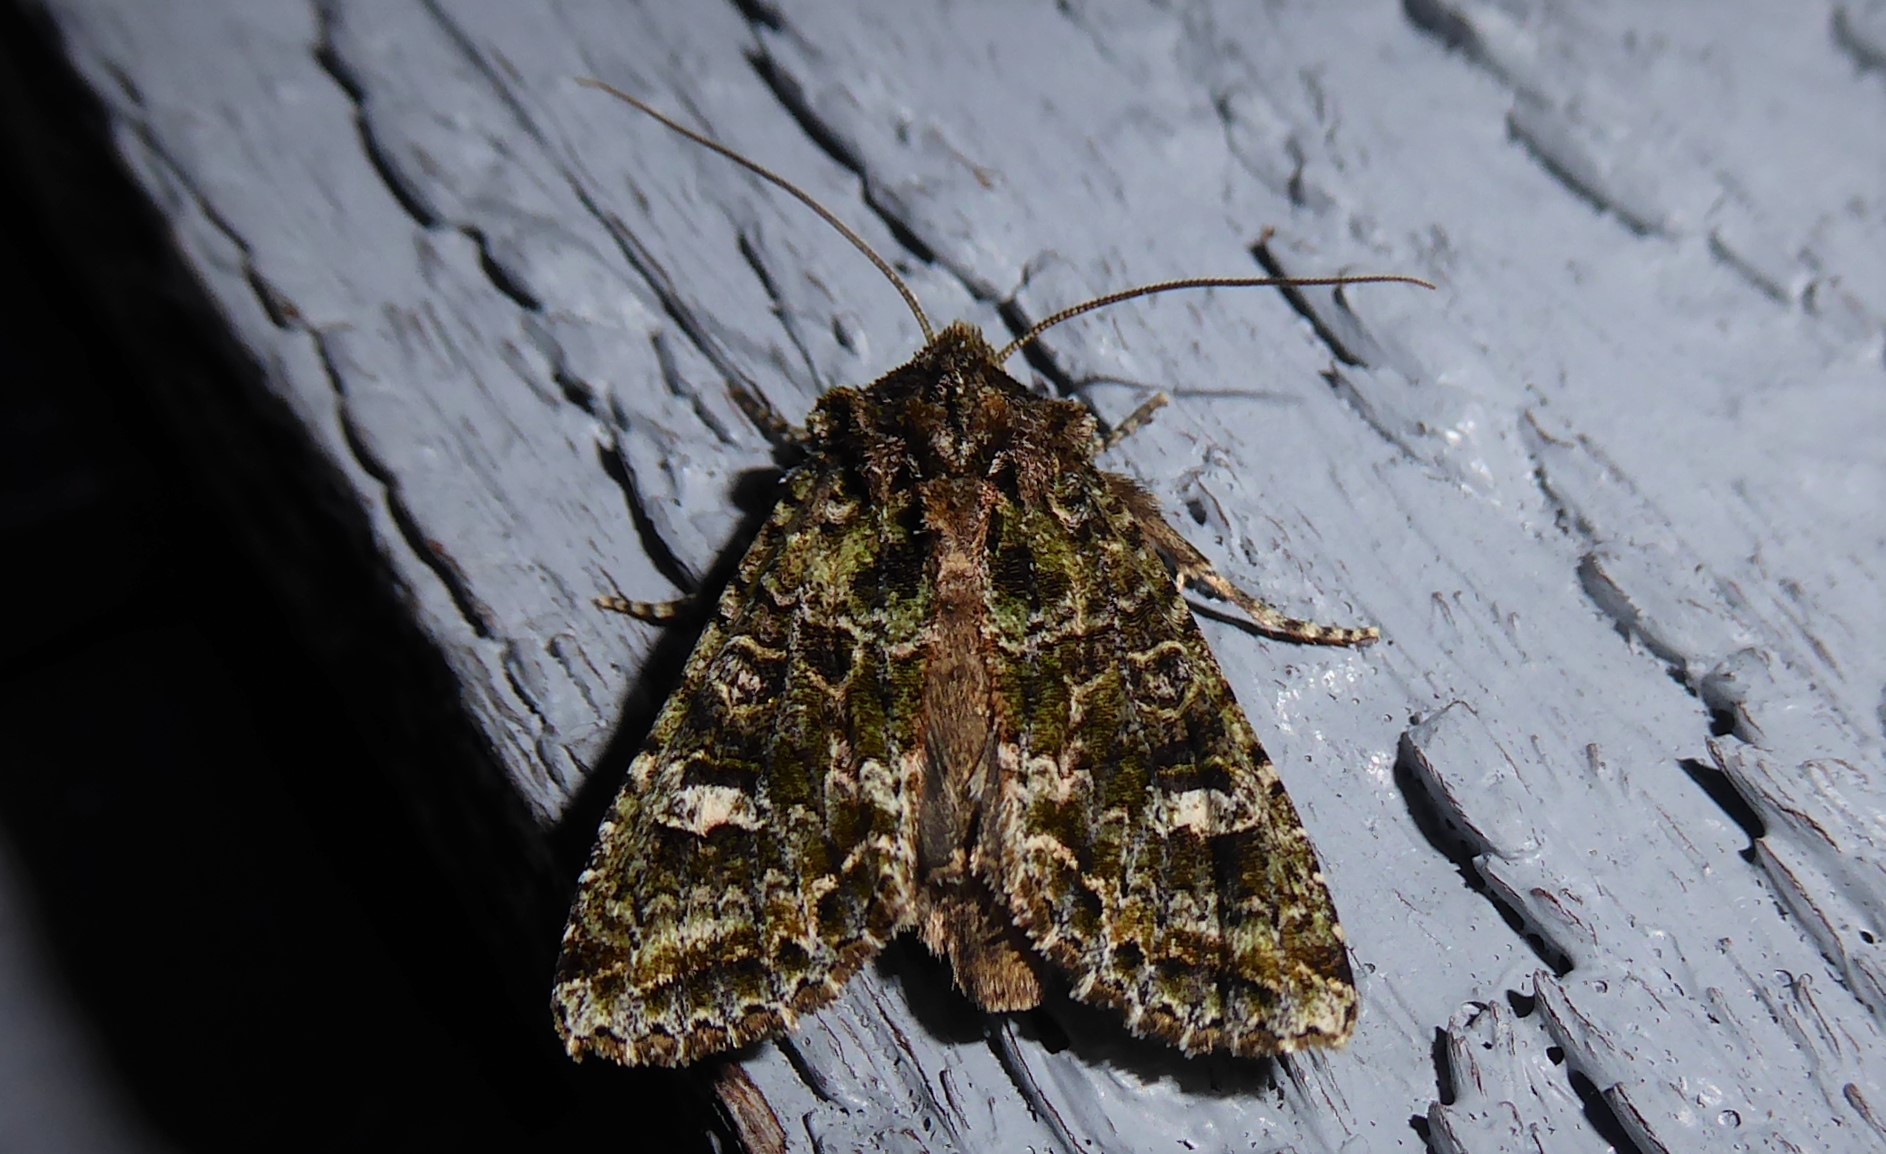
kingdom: Animalia
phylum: Arthropoda
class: Insecta
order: Lepidoptera
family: Noctuidae
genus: Ichneutica
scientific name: Ichneutica
